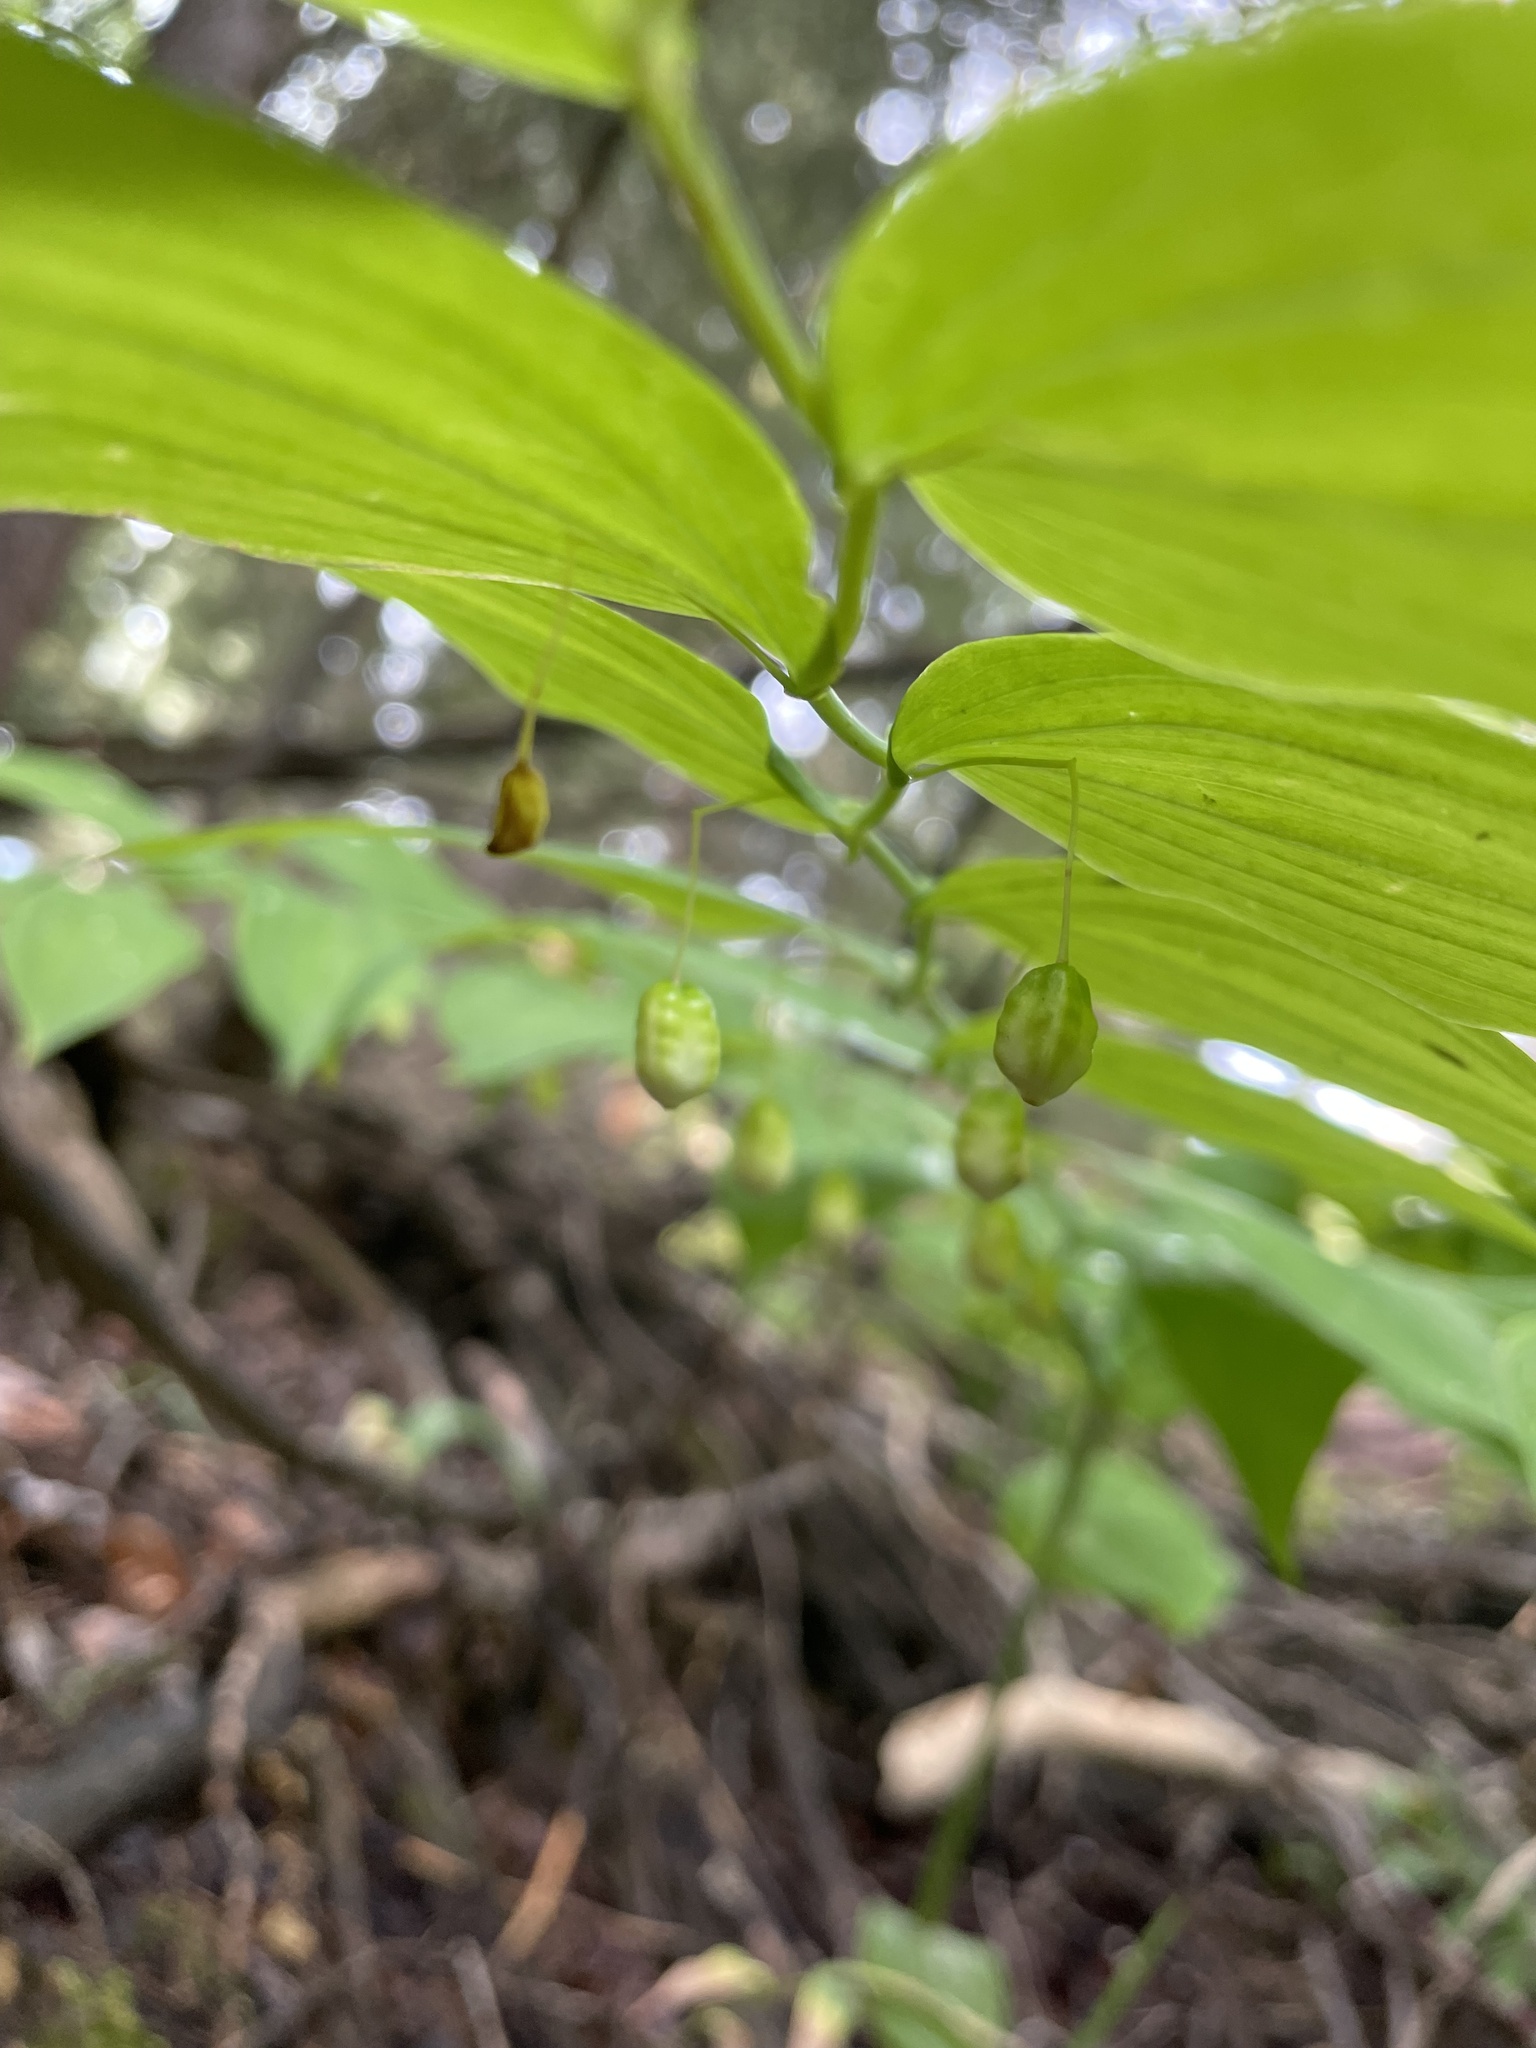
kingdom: Plantae
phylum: Tracheophyta
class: Liliopsida
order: Liliales
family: Liliaceae
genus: Streptopus
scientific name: Streptopus amplexifolius
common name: Clasp twisted stalk
